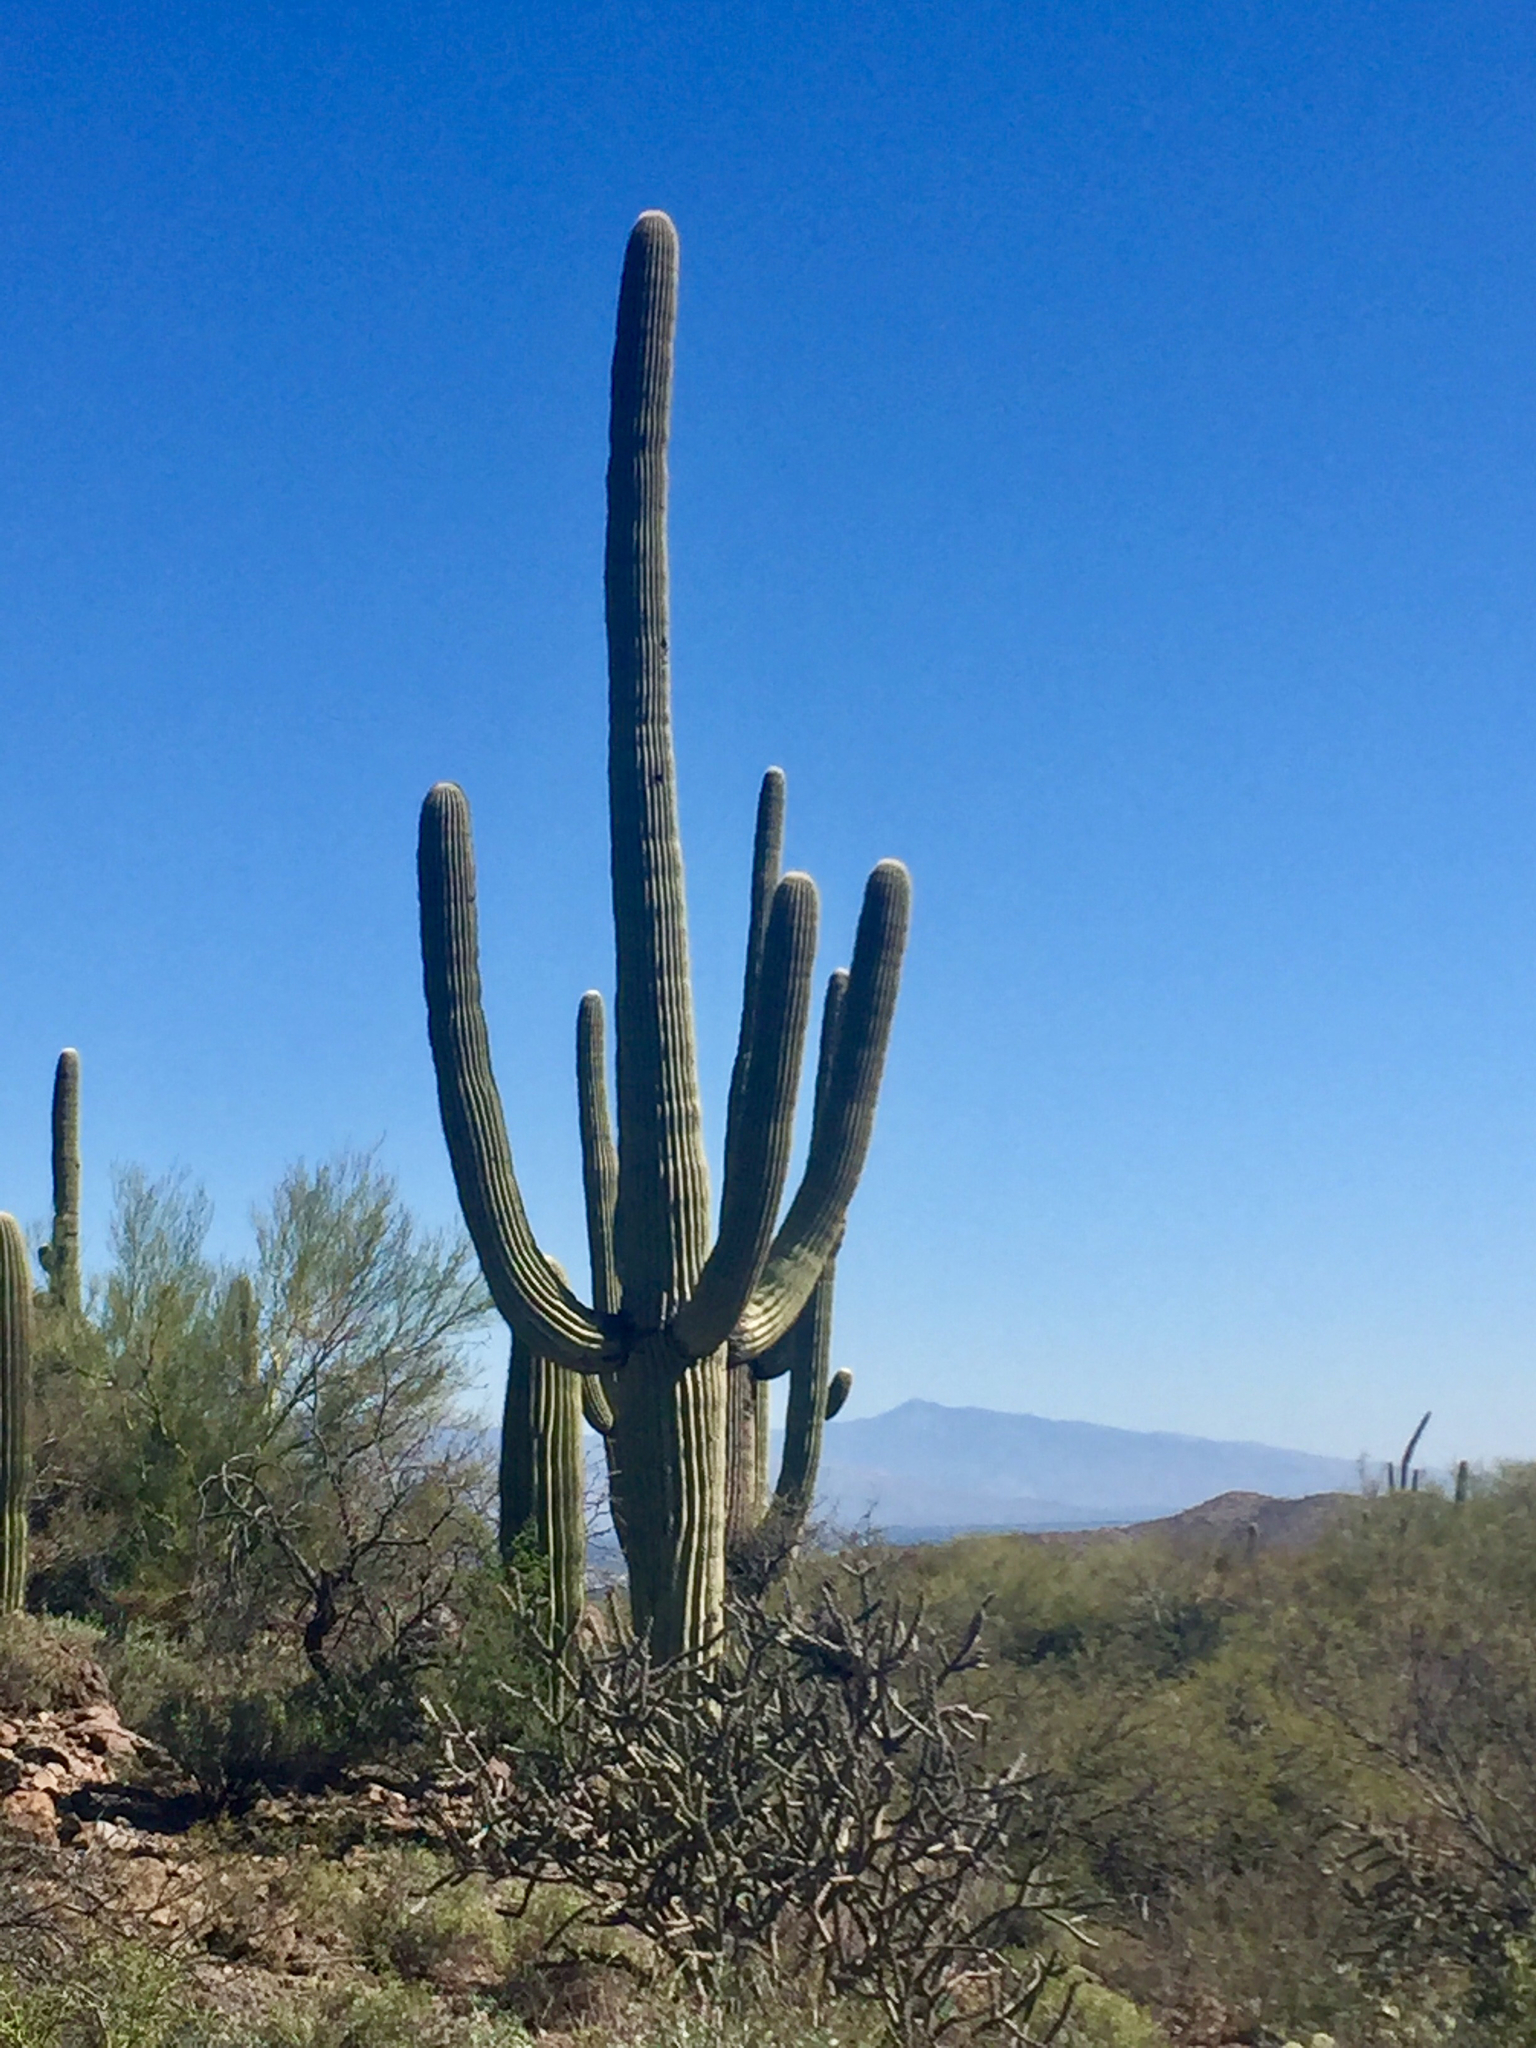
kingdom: Plantae
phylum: Tracheophyta
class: Magnoliopsida
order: Caryophyllales
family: Cactaceae
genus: Carnegiea
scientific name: Carnegiea gigantea
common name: Saguaro
